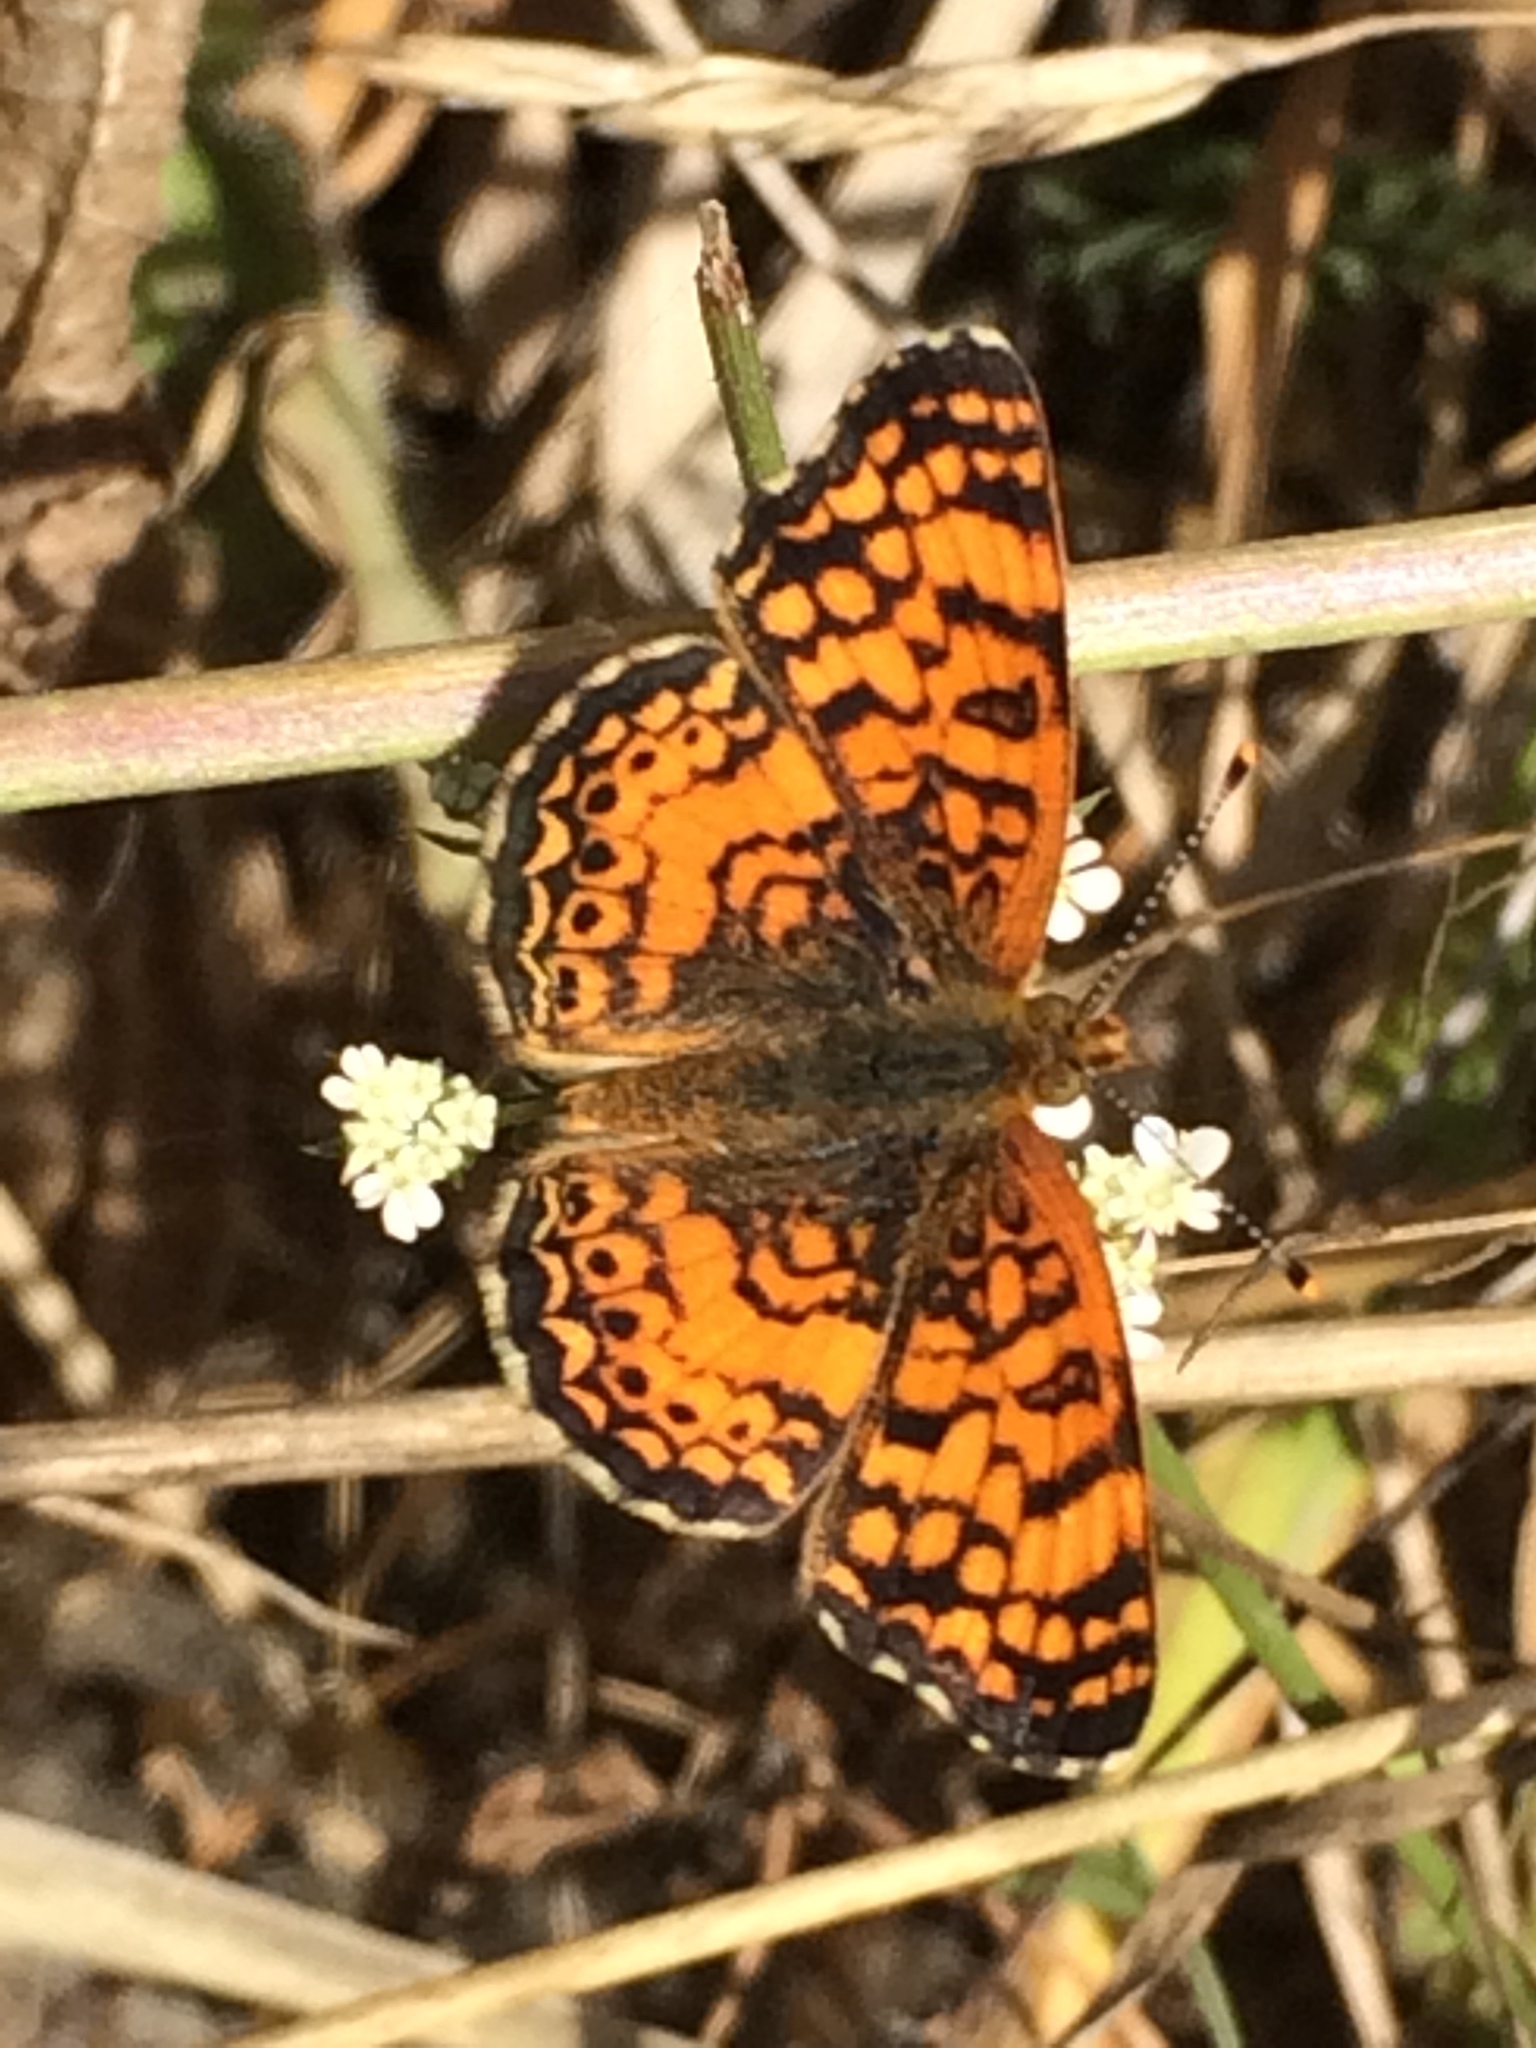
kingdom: Animalia
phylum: Arthropoda
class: Insecta
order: Lepidoptera
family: Nymphalidae
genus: Eresia
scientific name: Eresia aveyrona
